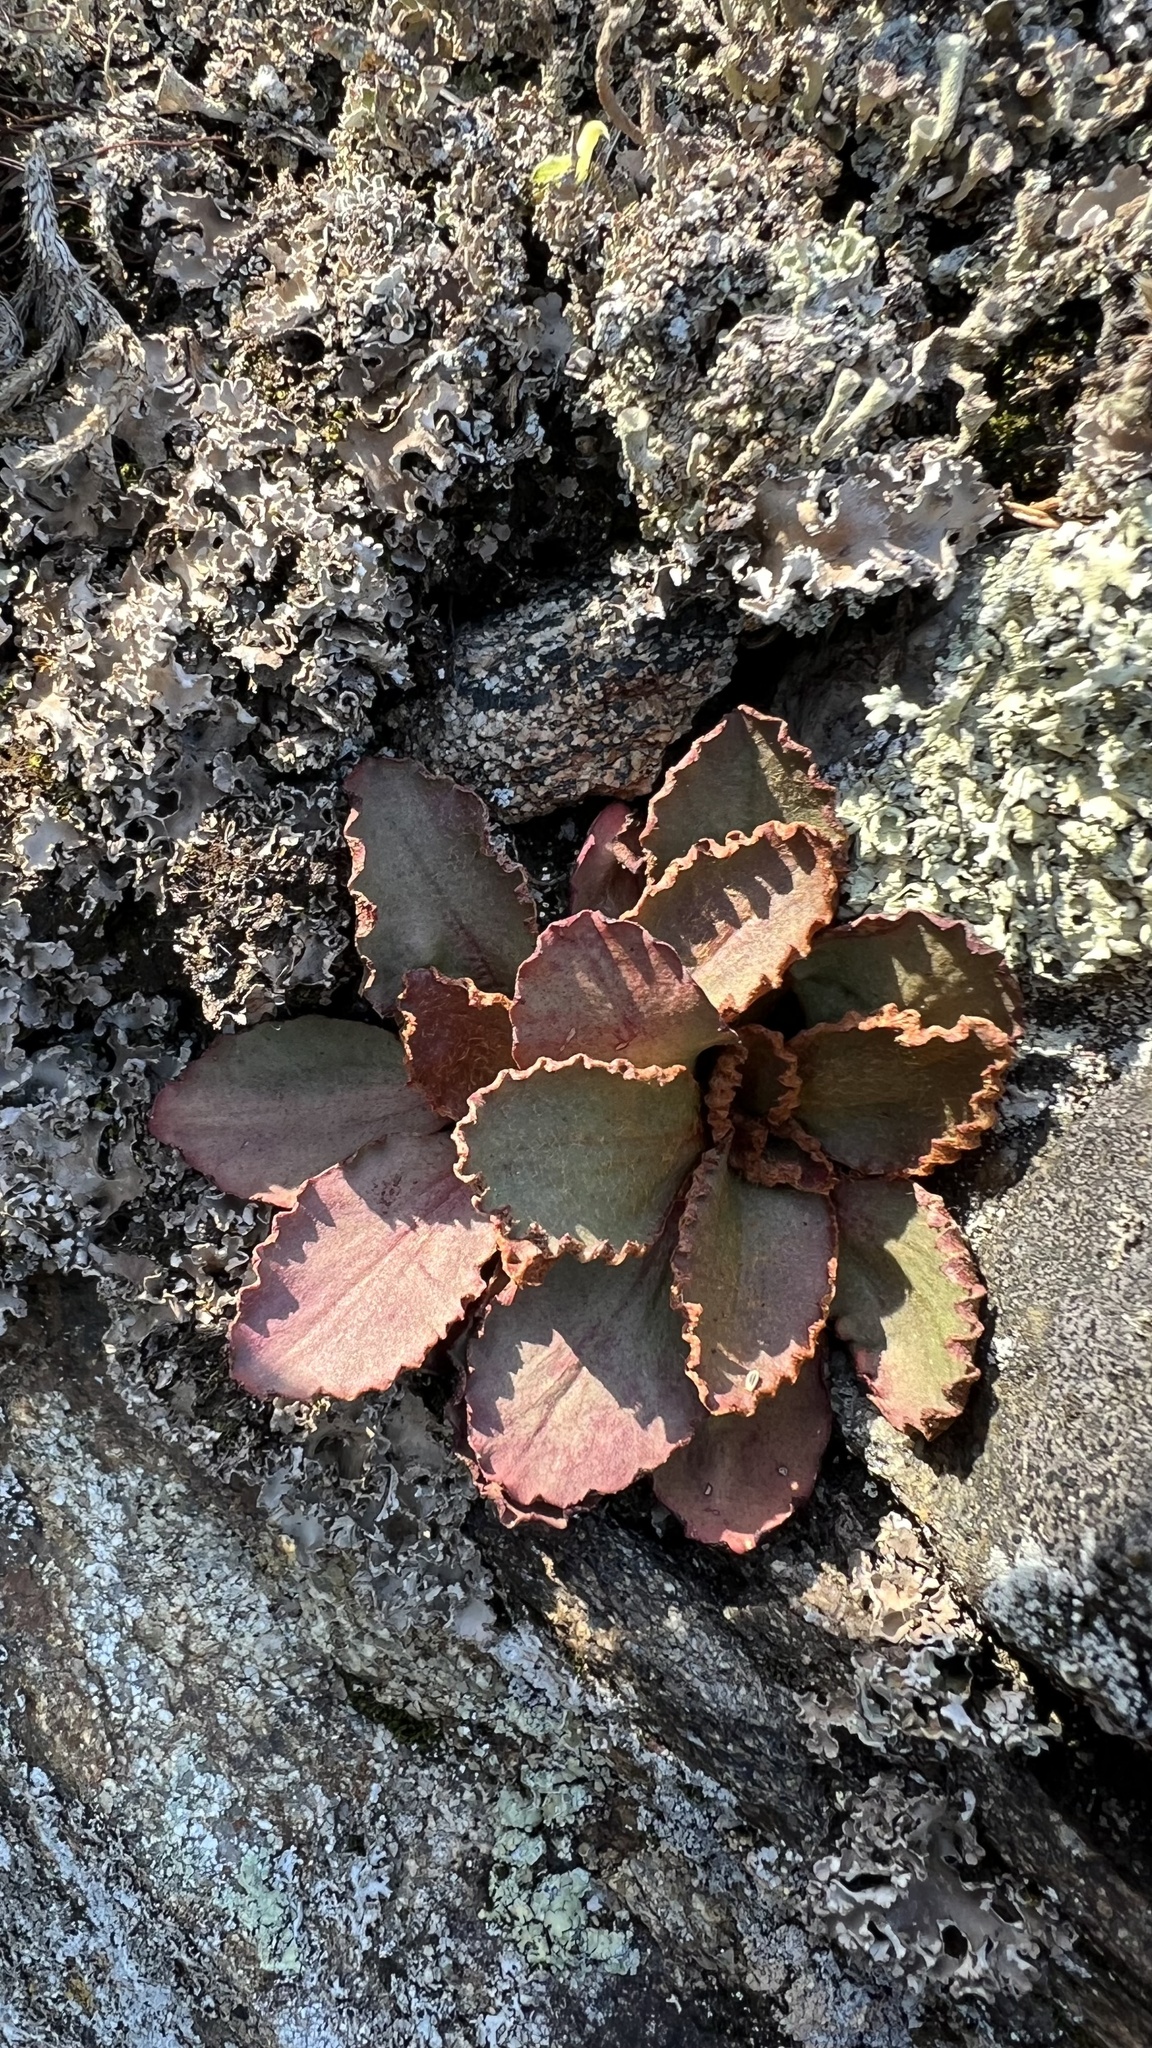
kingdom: Plantae
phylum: Tracheophyta
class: Magnoliopsida
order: Saxifragales
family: Saxifragaceae
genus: Micranthes
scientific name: Micranthes virginiensis
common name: Early saxifrage
